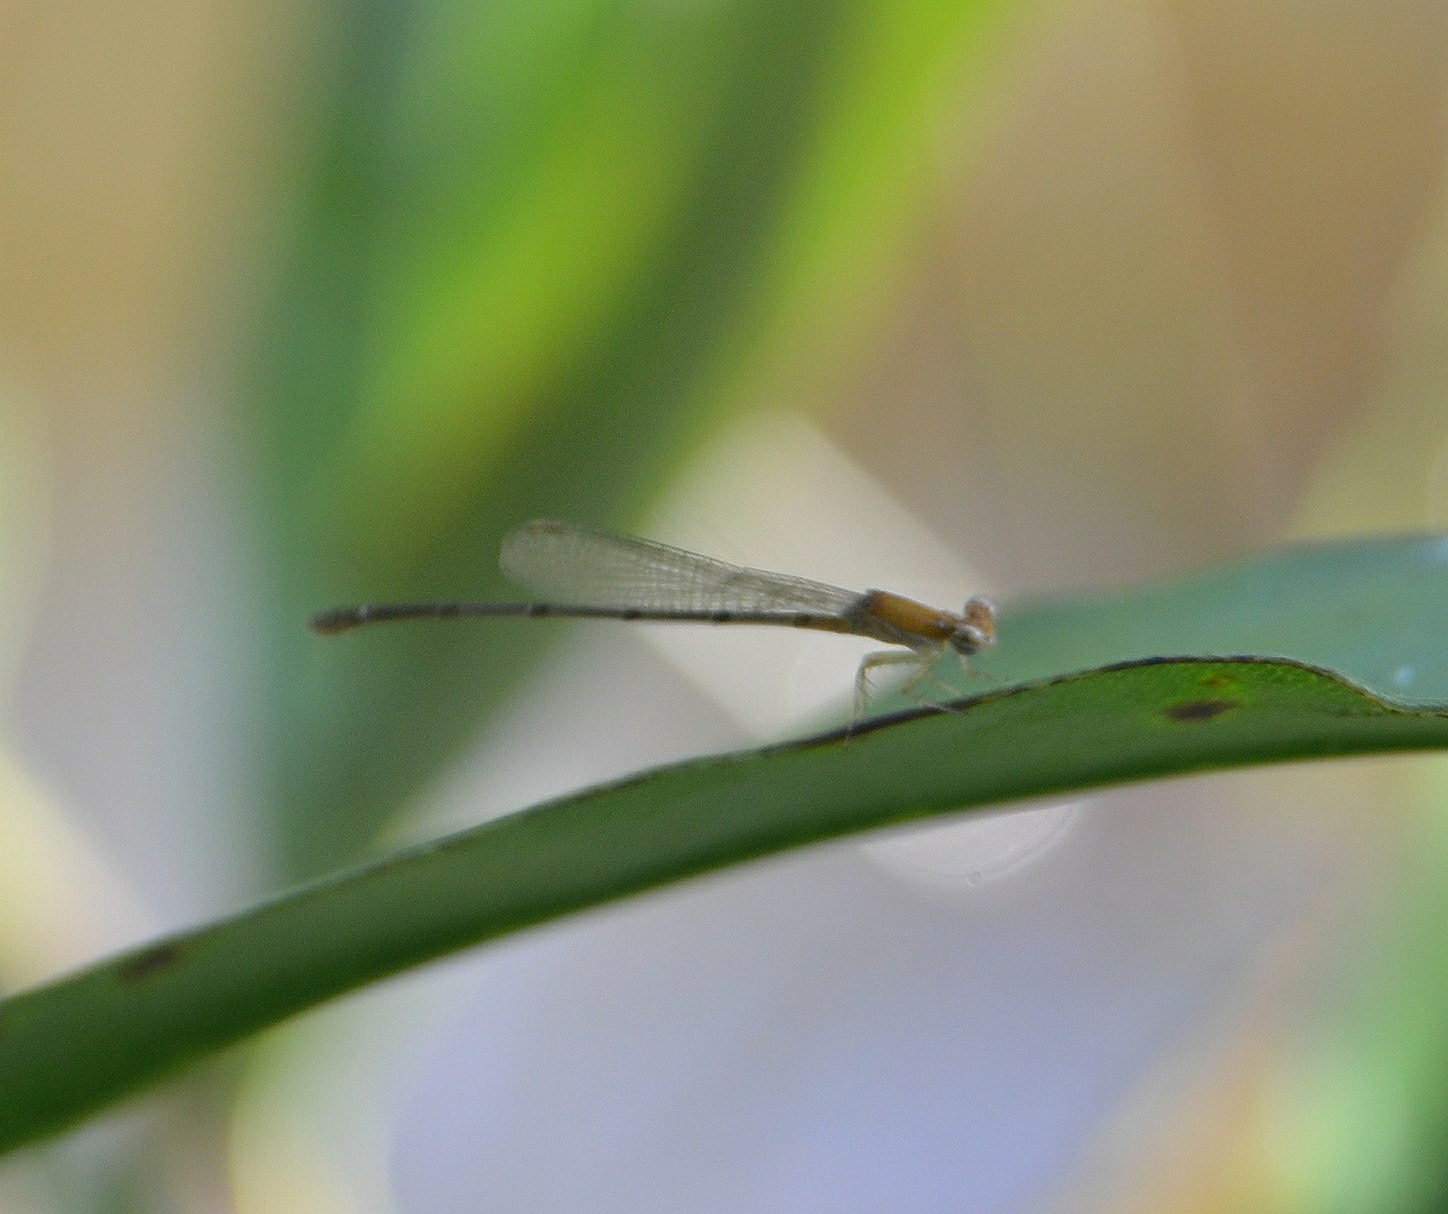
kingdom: Animalia
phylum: Arthropoda
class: Insecta
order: Odonata
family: Coenagrionidae
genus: Mortonagrion
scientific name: Mortonagrion varralli
